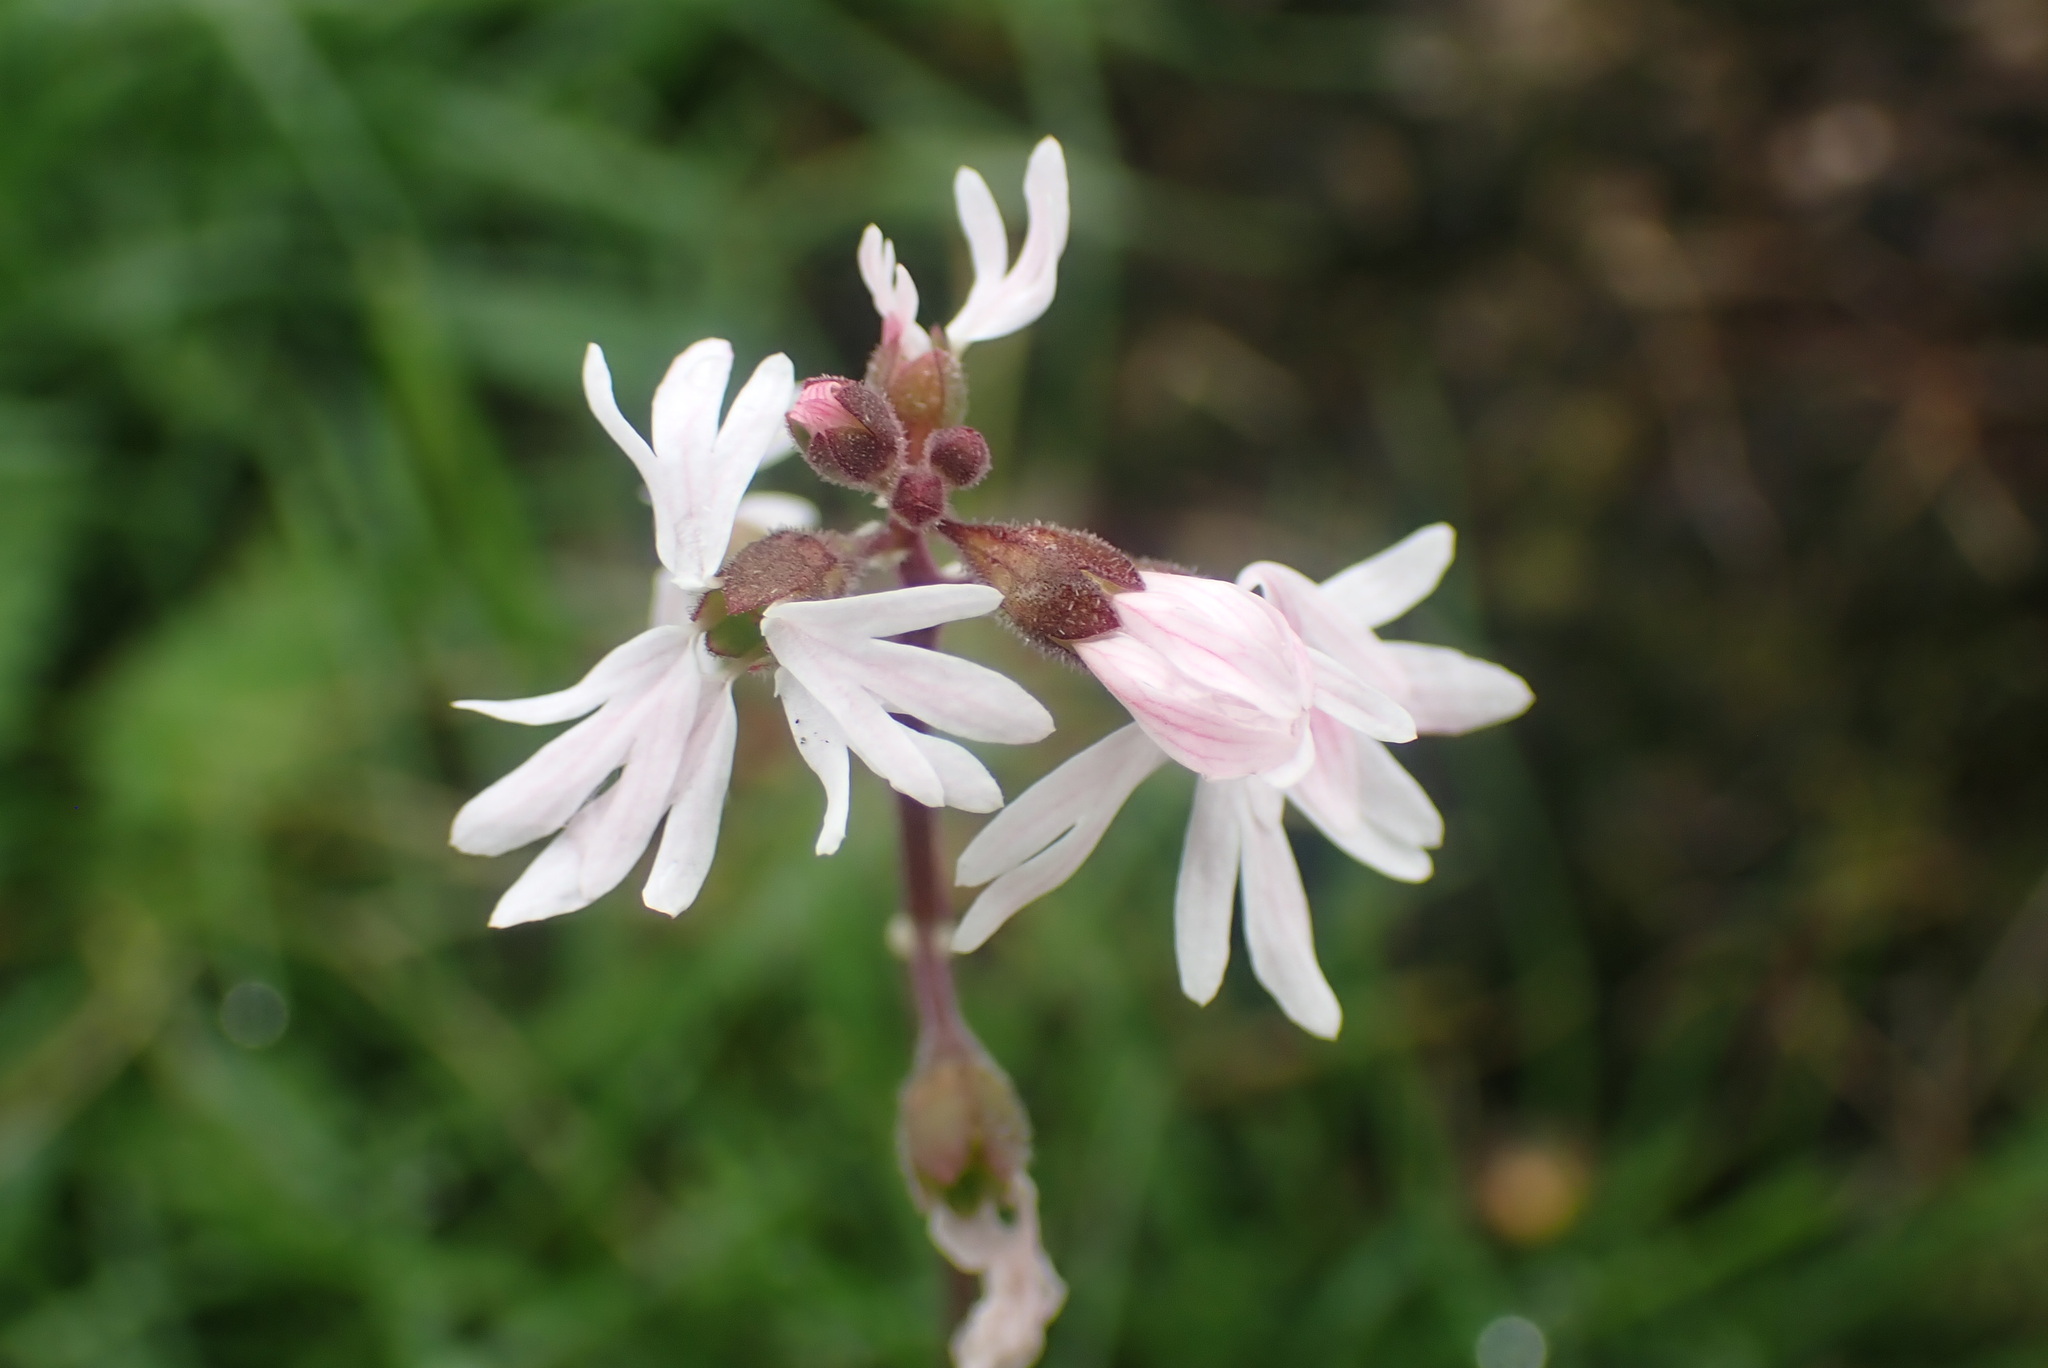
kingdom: Plantae
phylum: Tracheophyta
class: Magnoliopsida
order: Saxifragales
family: Saxifragaceae
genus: Lithophragma
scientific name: Lithophragma parviflorum
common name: Small-flowered fringe-cup
